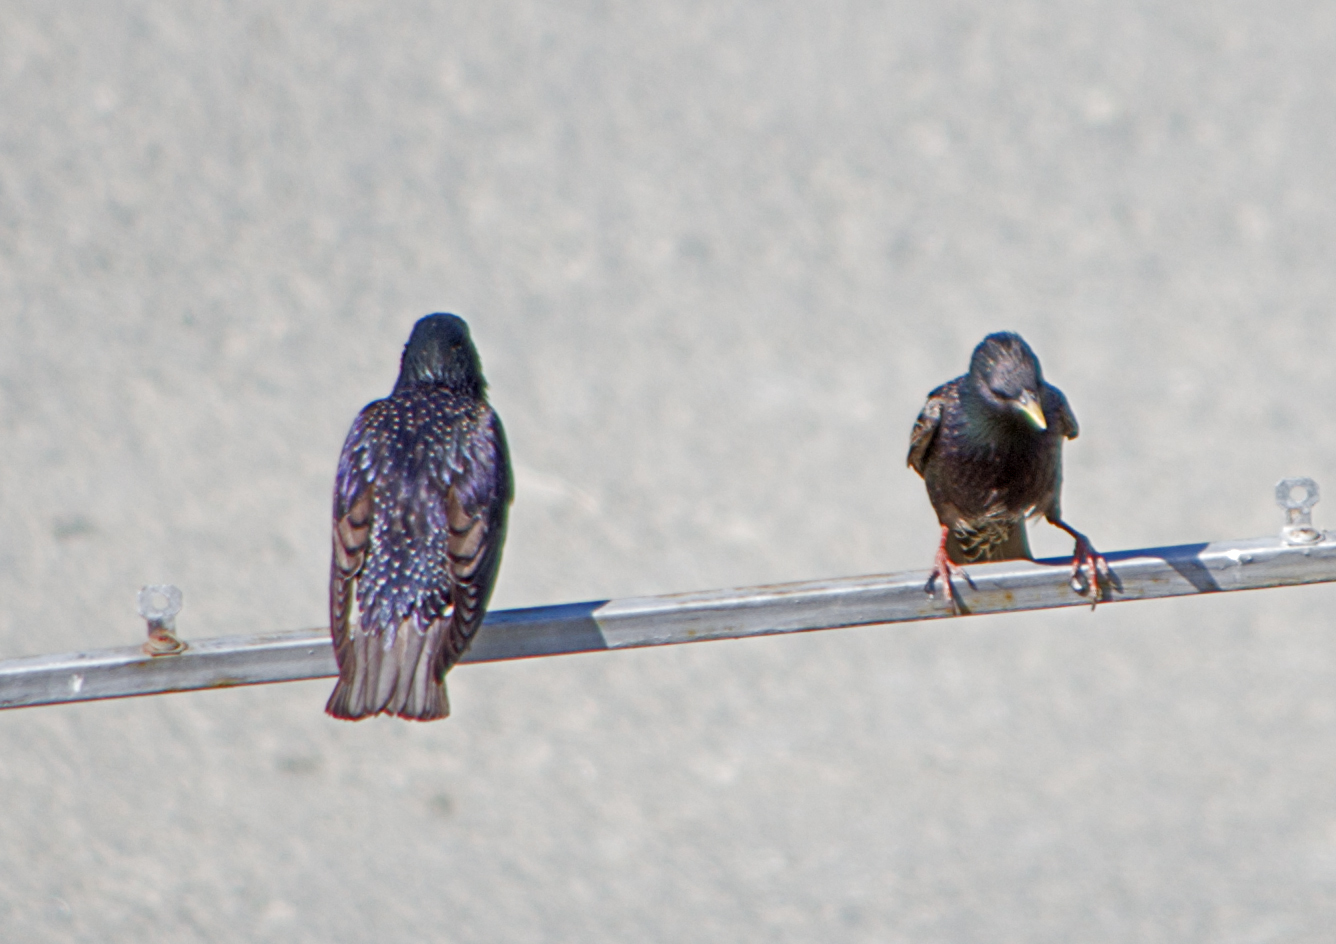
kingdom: Animalia
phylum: Chordata
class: Aves
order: Passeriformes
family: Sturnidae
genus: Sturnus
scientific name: Sturnus vulgaris
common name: Common starling
